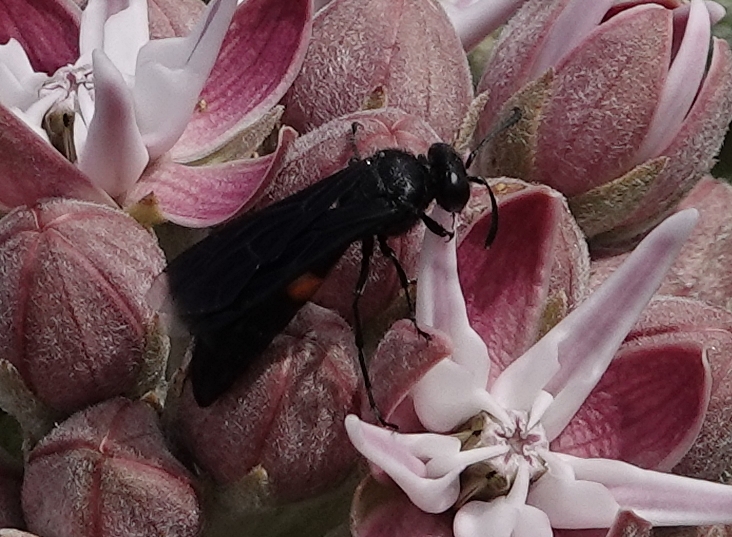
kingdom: Animalia
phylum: Arthropoda
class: Insecta
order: Hymenoptera
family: Crabronidae
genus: Stizoides
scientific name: Stizoides renicinctus
